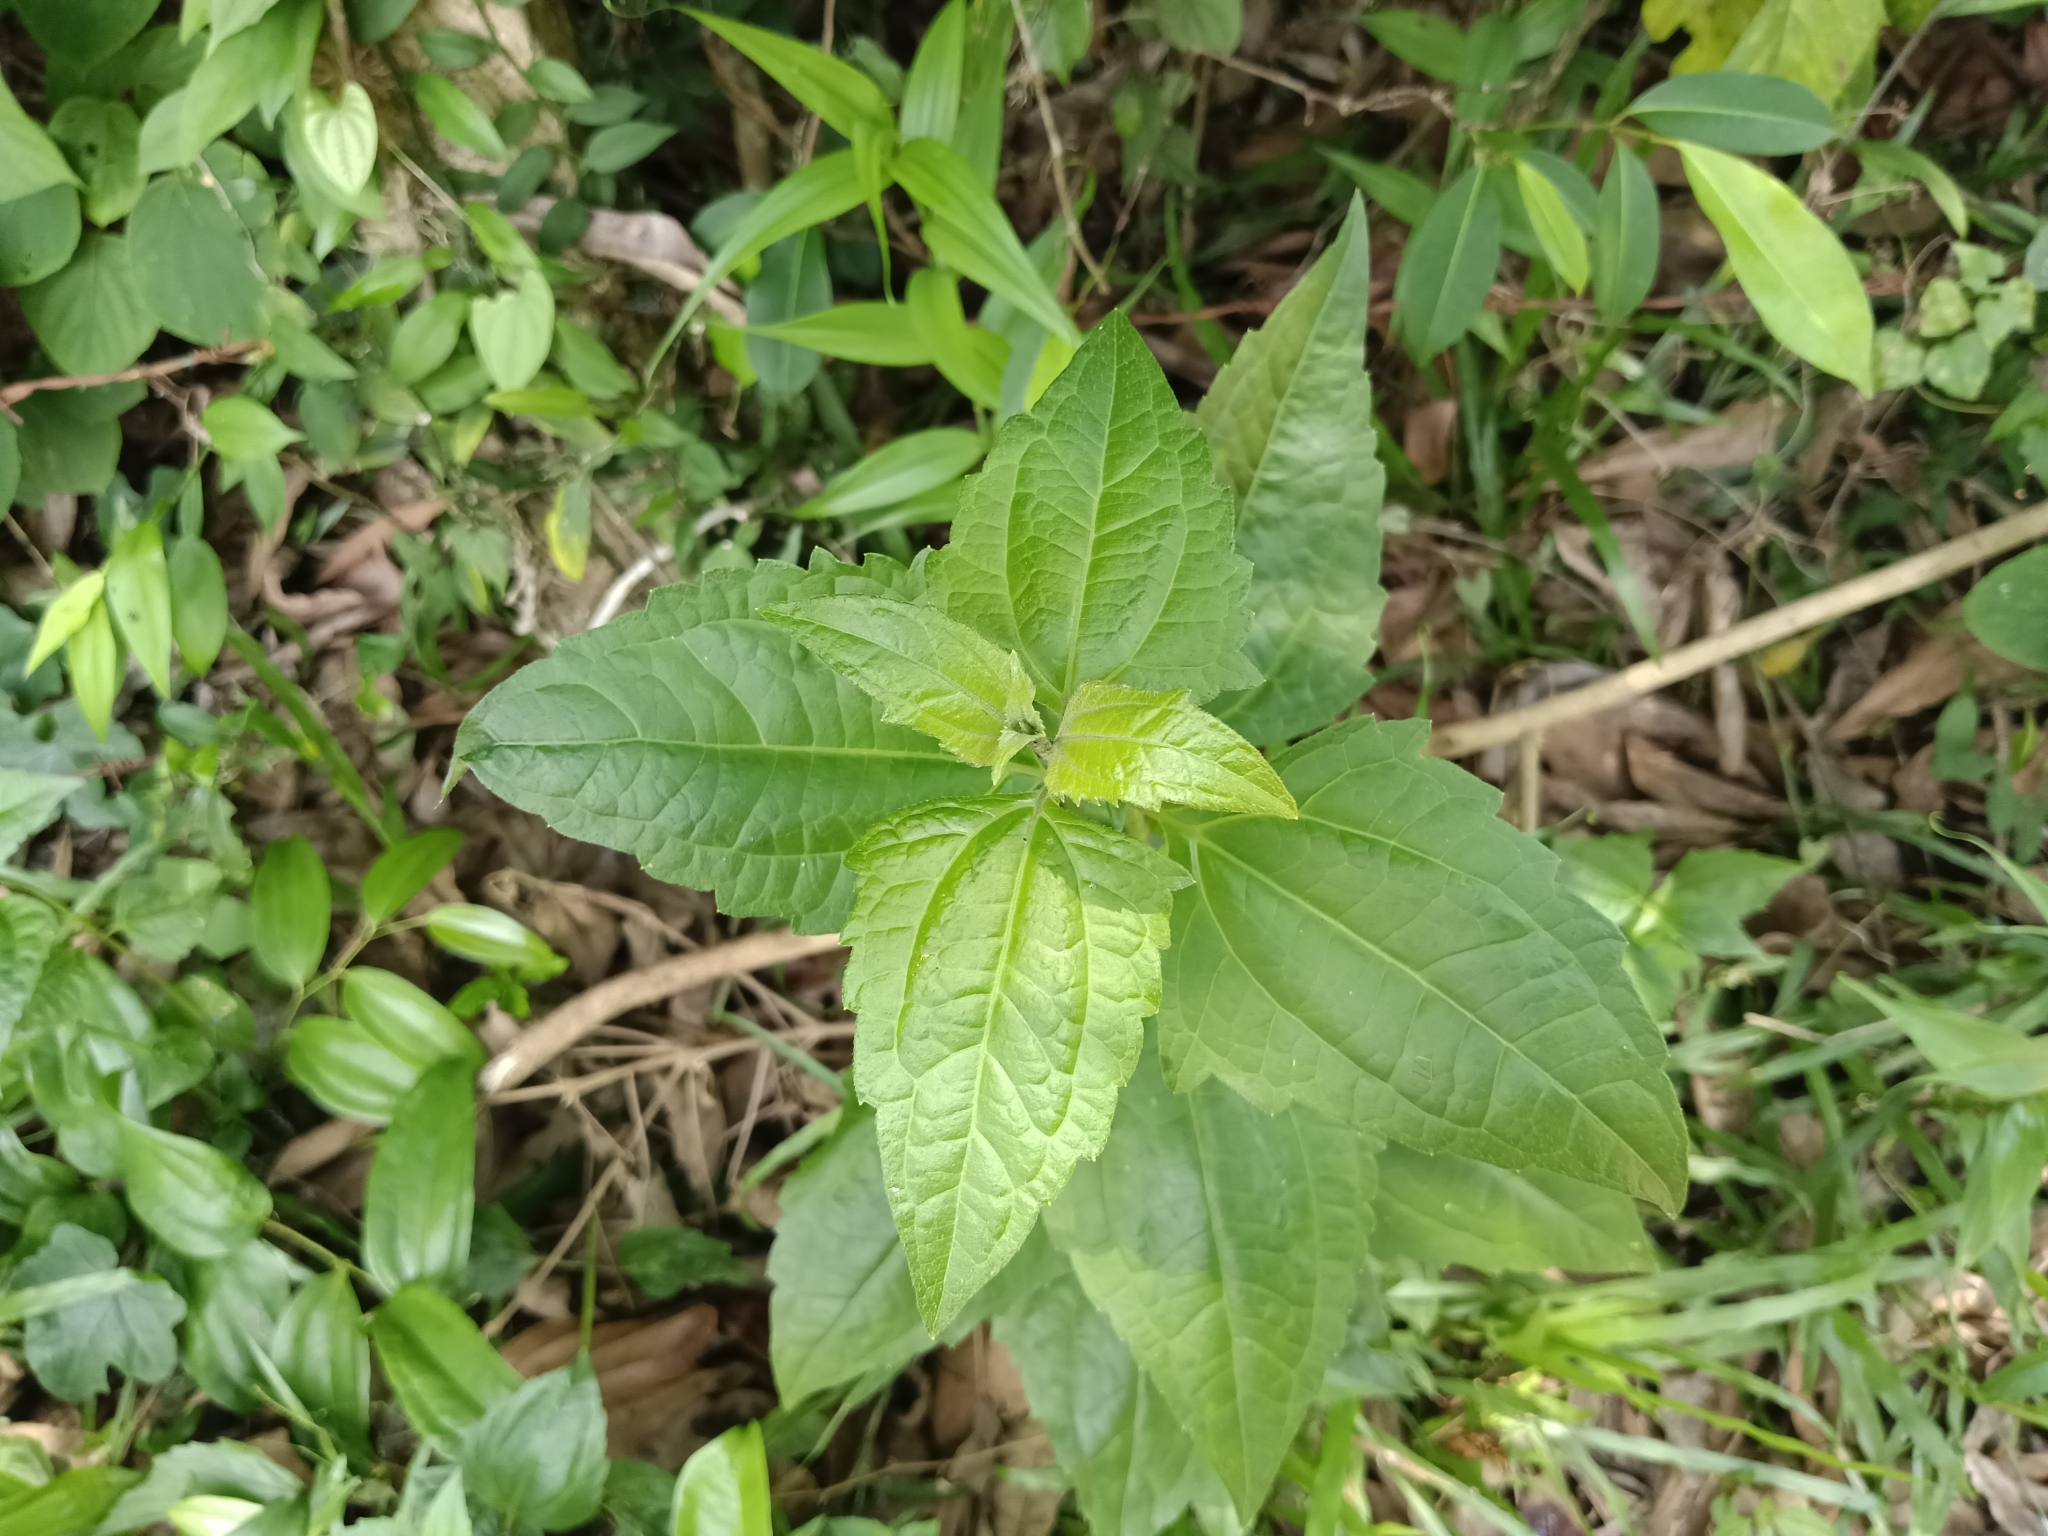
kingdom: Plantae
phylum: Tracheophyta
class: Magnoliopsida
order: Asterales
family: Asteraceae
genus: Chromolaena
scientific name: Chromolaena odorata
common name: Siamweed
